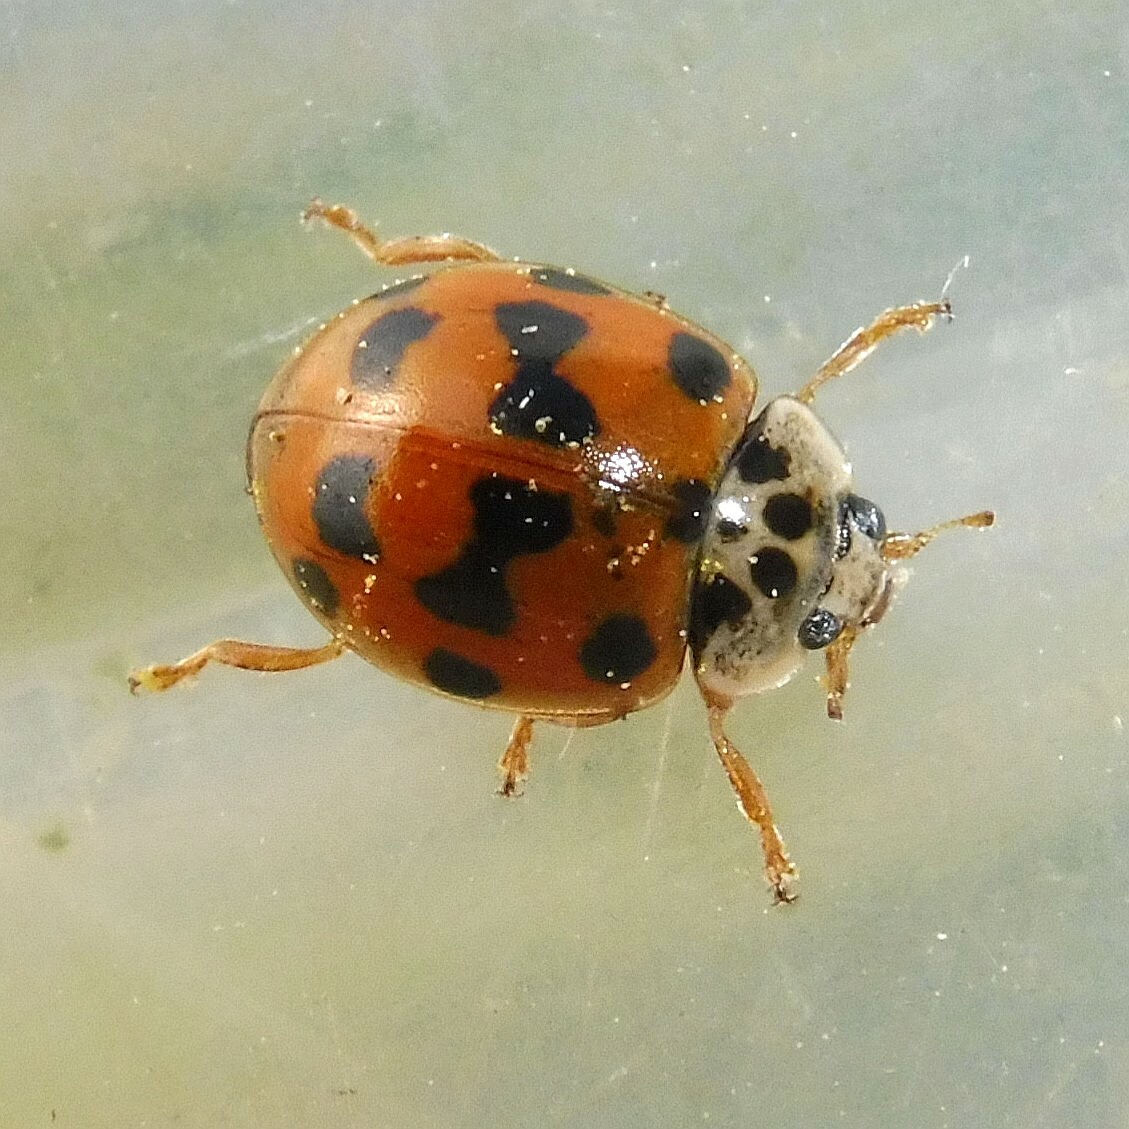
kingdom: Animalia
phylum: Arthropoda
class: Insecta
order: Coleoptera
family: Coccinellidae
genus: Adalia
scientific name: Adalia decempunctata
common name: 10-spot ladybird
